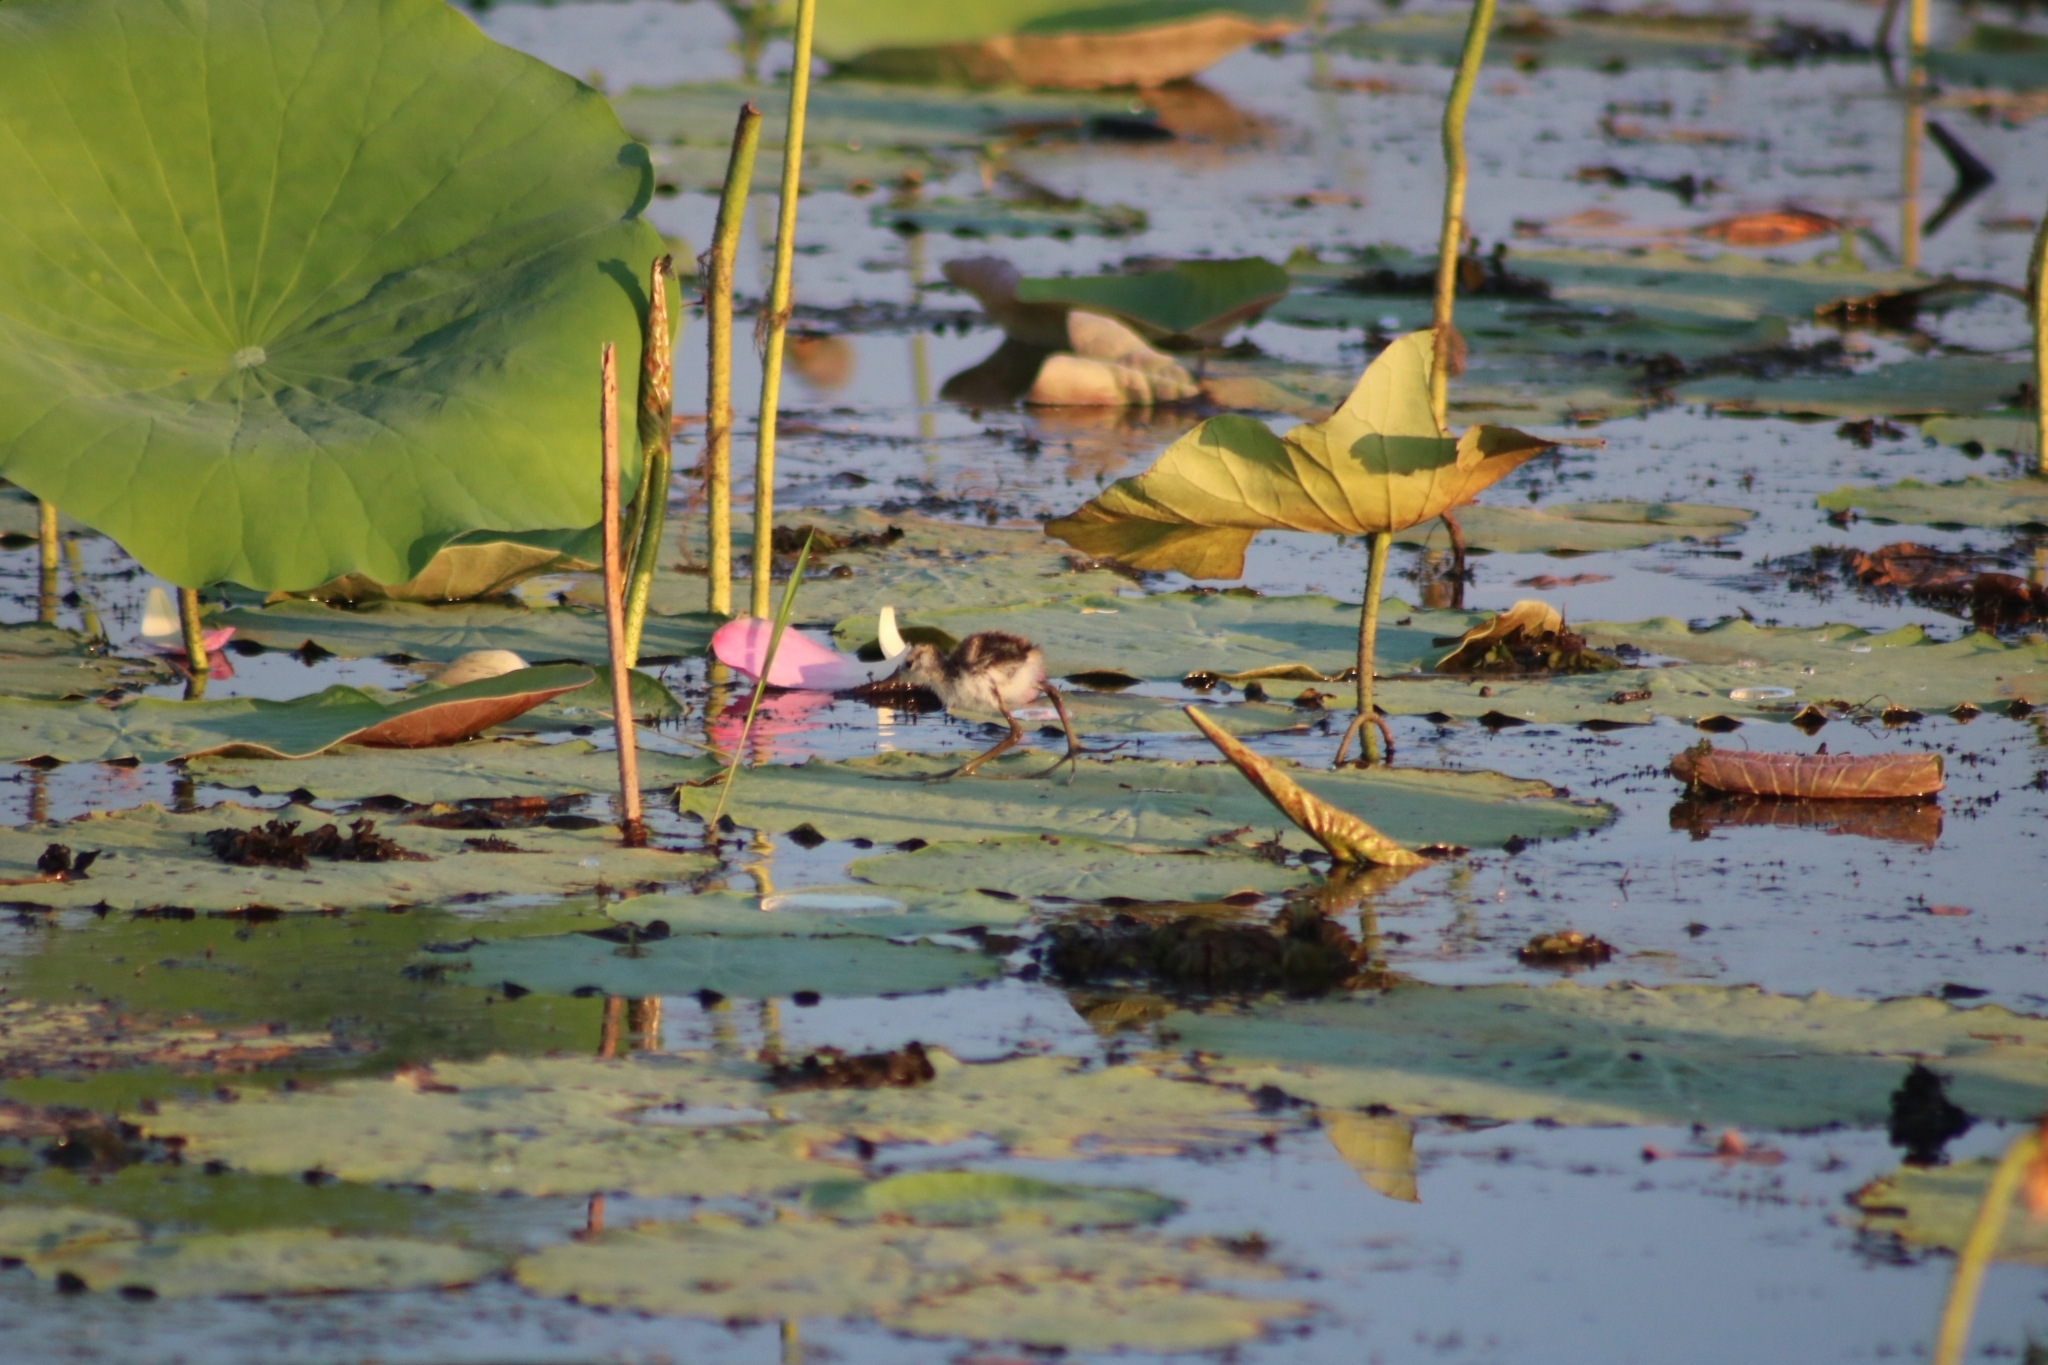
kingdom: Animalia
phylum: Chordata
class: Aves
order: Charadriiformes
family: Jacanidae
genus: Irediparra
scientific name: Irediparra gallinacea
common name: Comb-crested jacana
